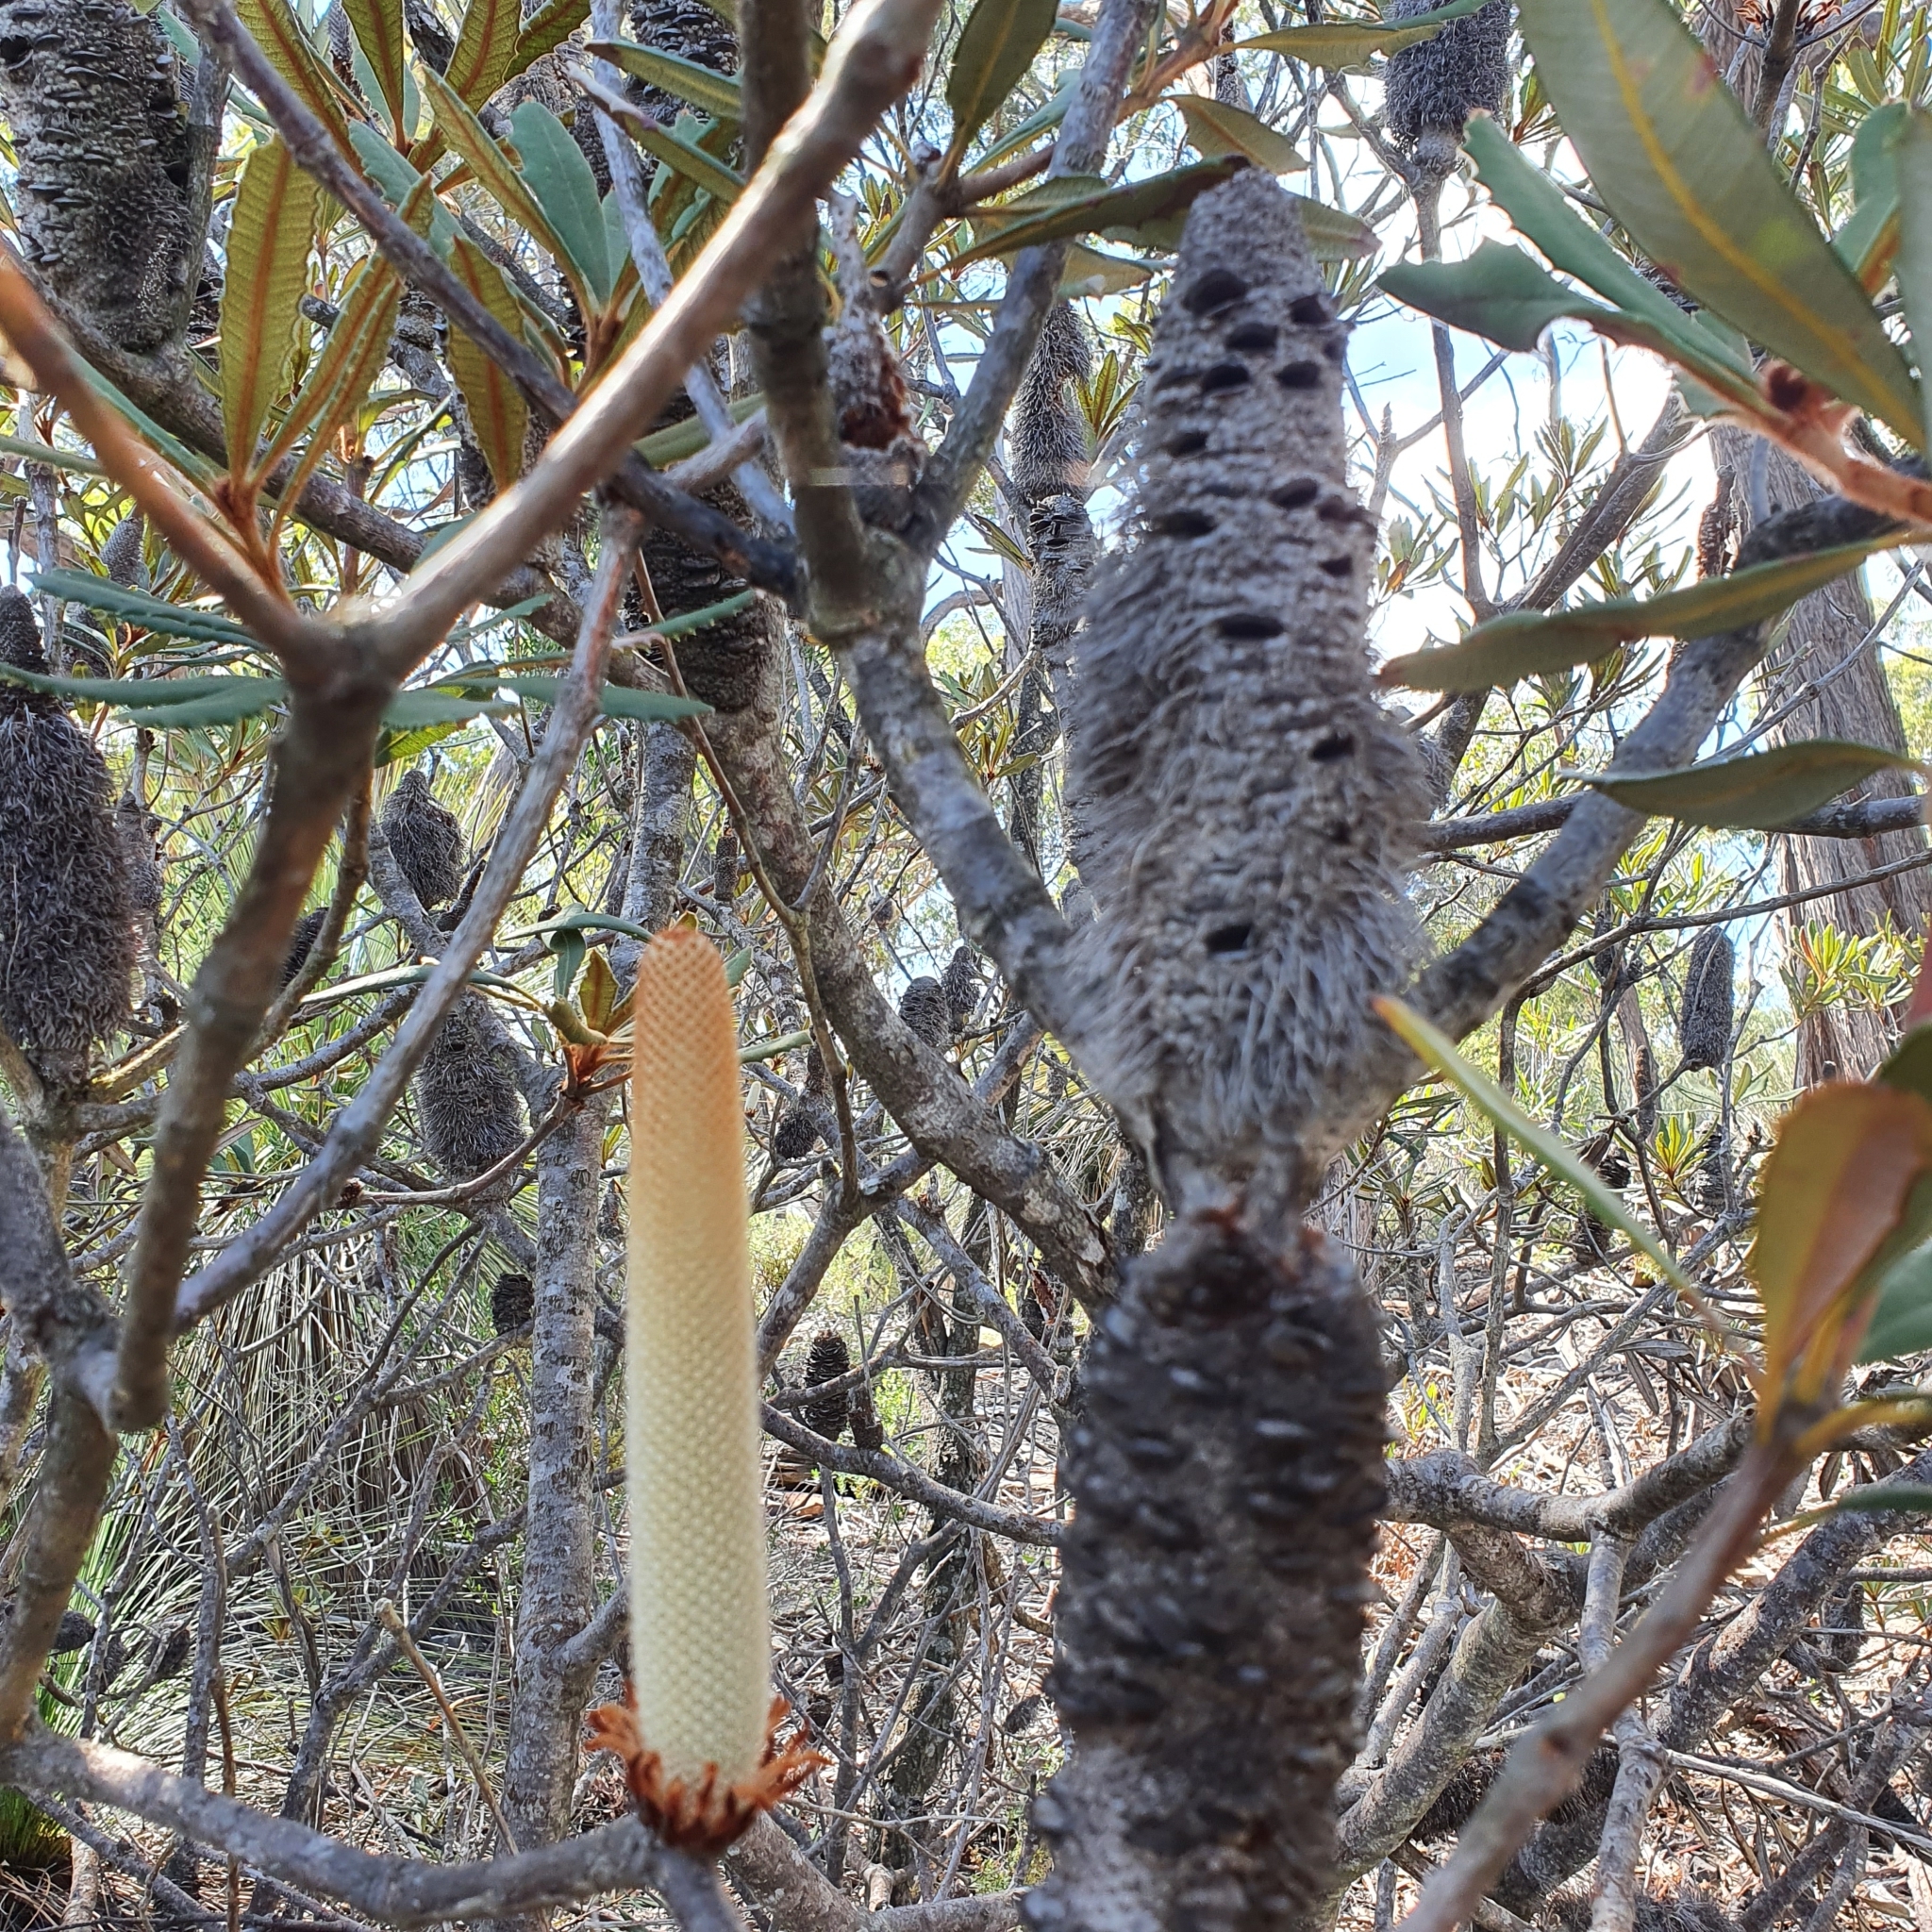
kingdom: Plantae
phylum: Tracheophyta
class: Magnoliopsida
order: Proteales
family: Proteaceae
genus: Banksia
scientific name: Banksia penicillata
